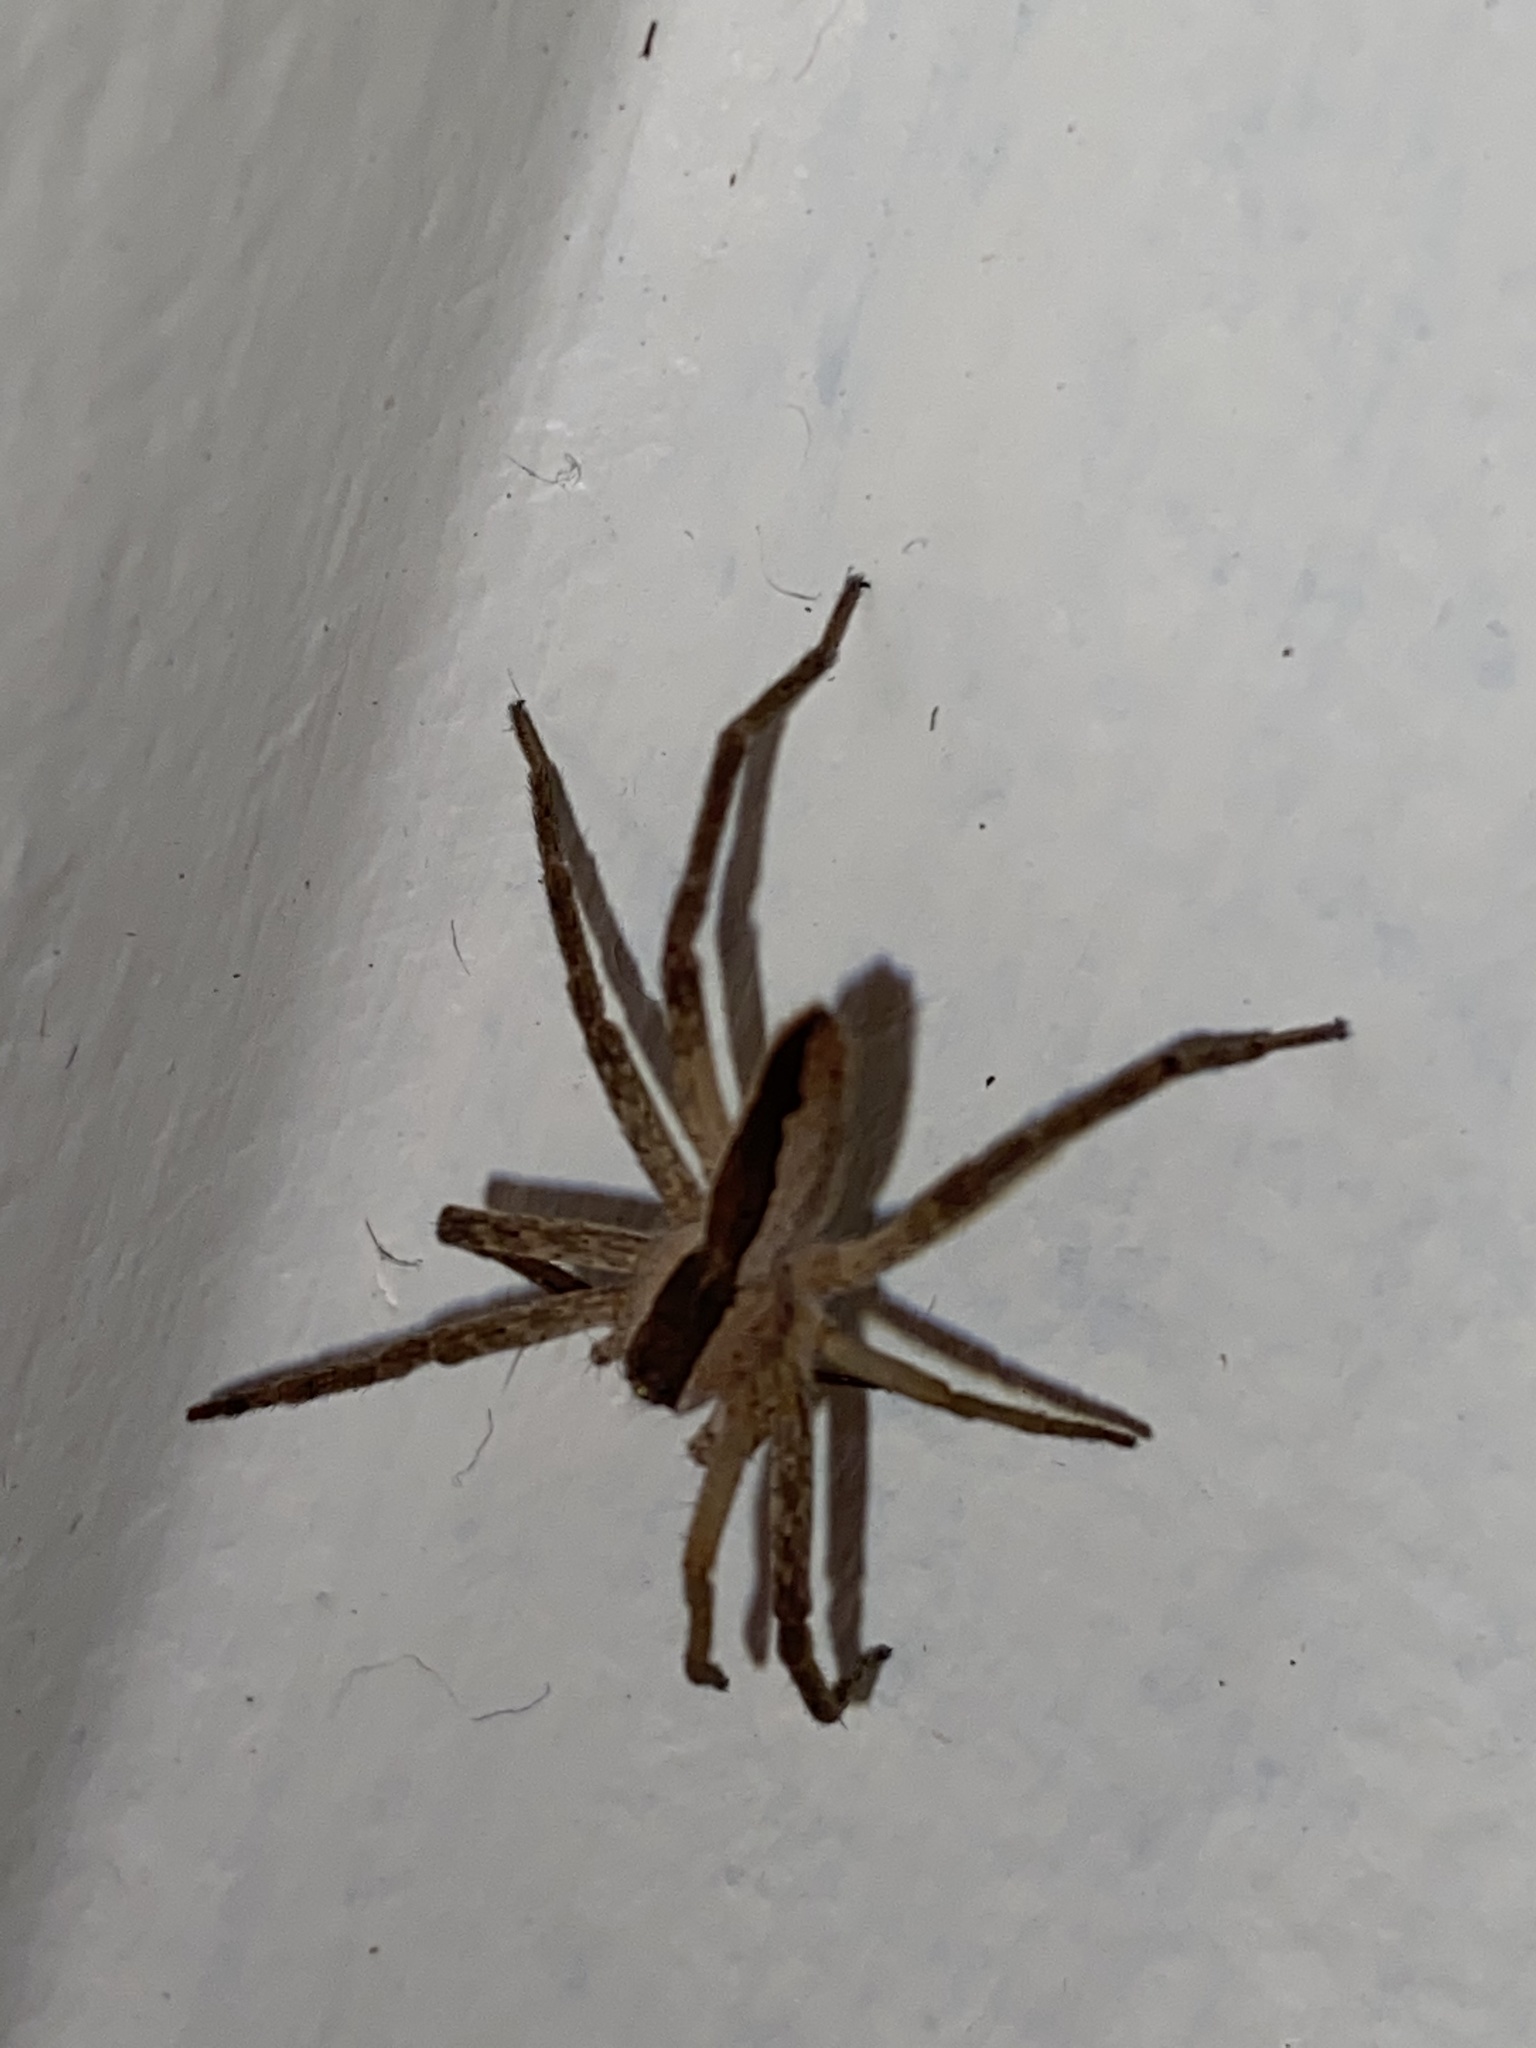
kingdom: Animalia
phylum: Arthropoda
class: Arachnida
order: Araneae
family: Pisauridae
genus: Pisaurina
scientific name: Pisaurina mira
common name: American nursery web spider
